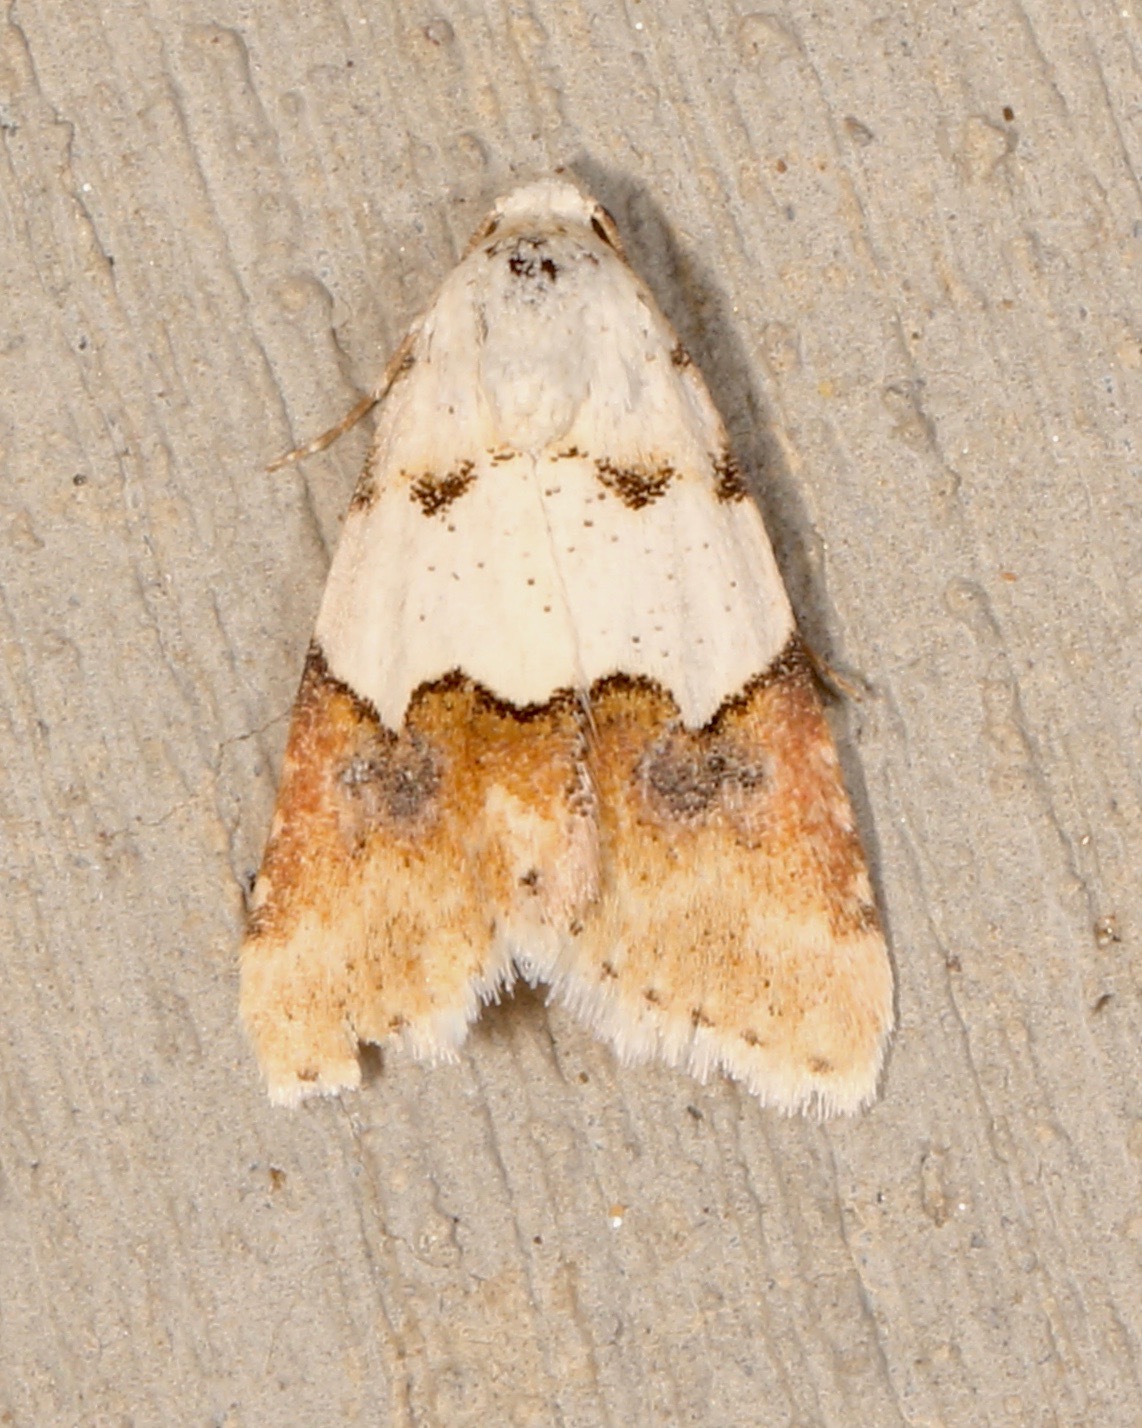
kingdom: Animalia
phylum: Arthropoda
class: Insecta
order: Lepidoptera
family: Noctuidae
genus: Euaontia
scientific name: Euaontia clarki
